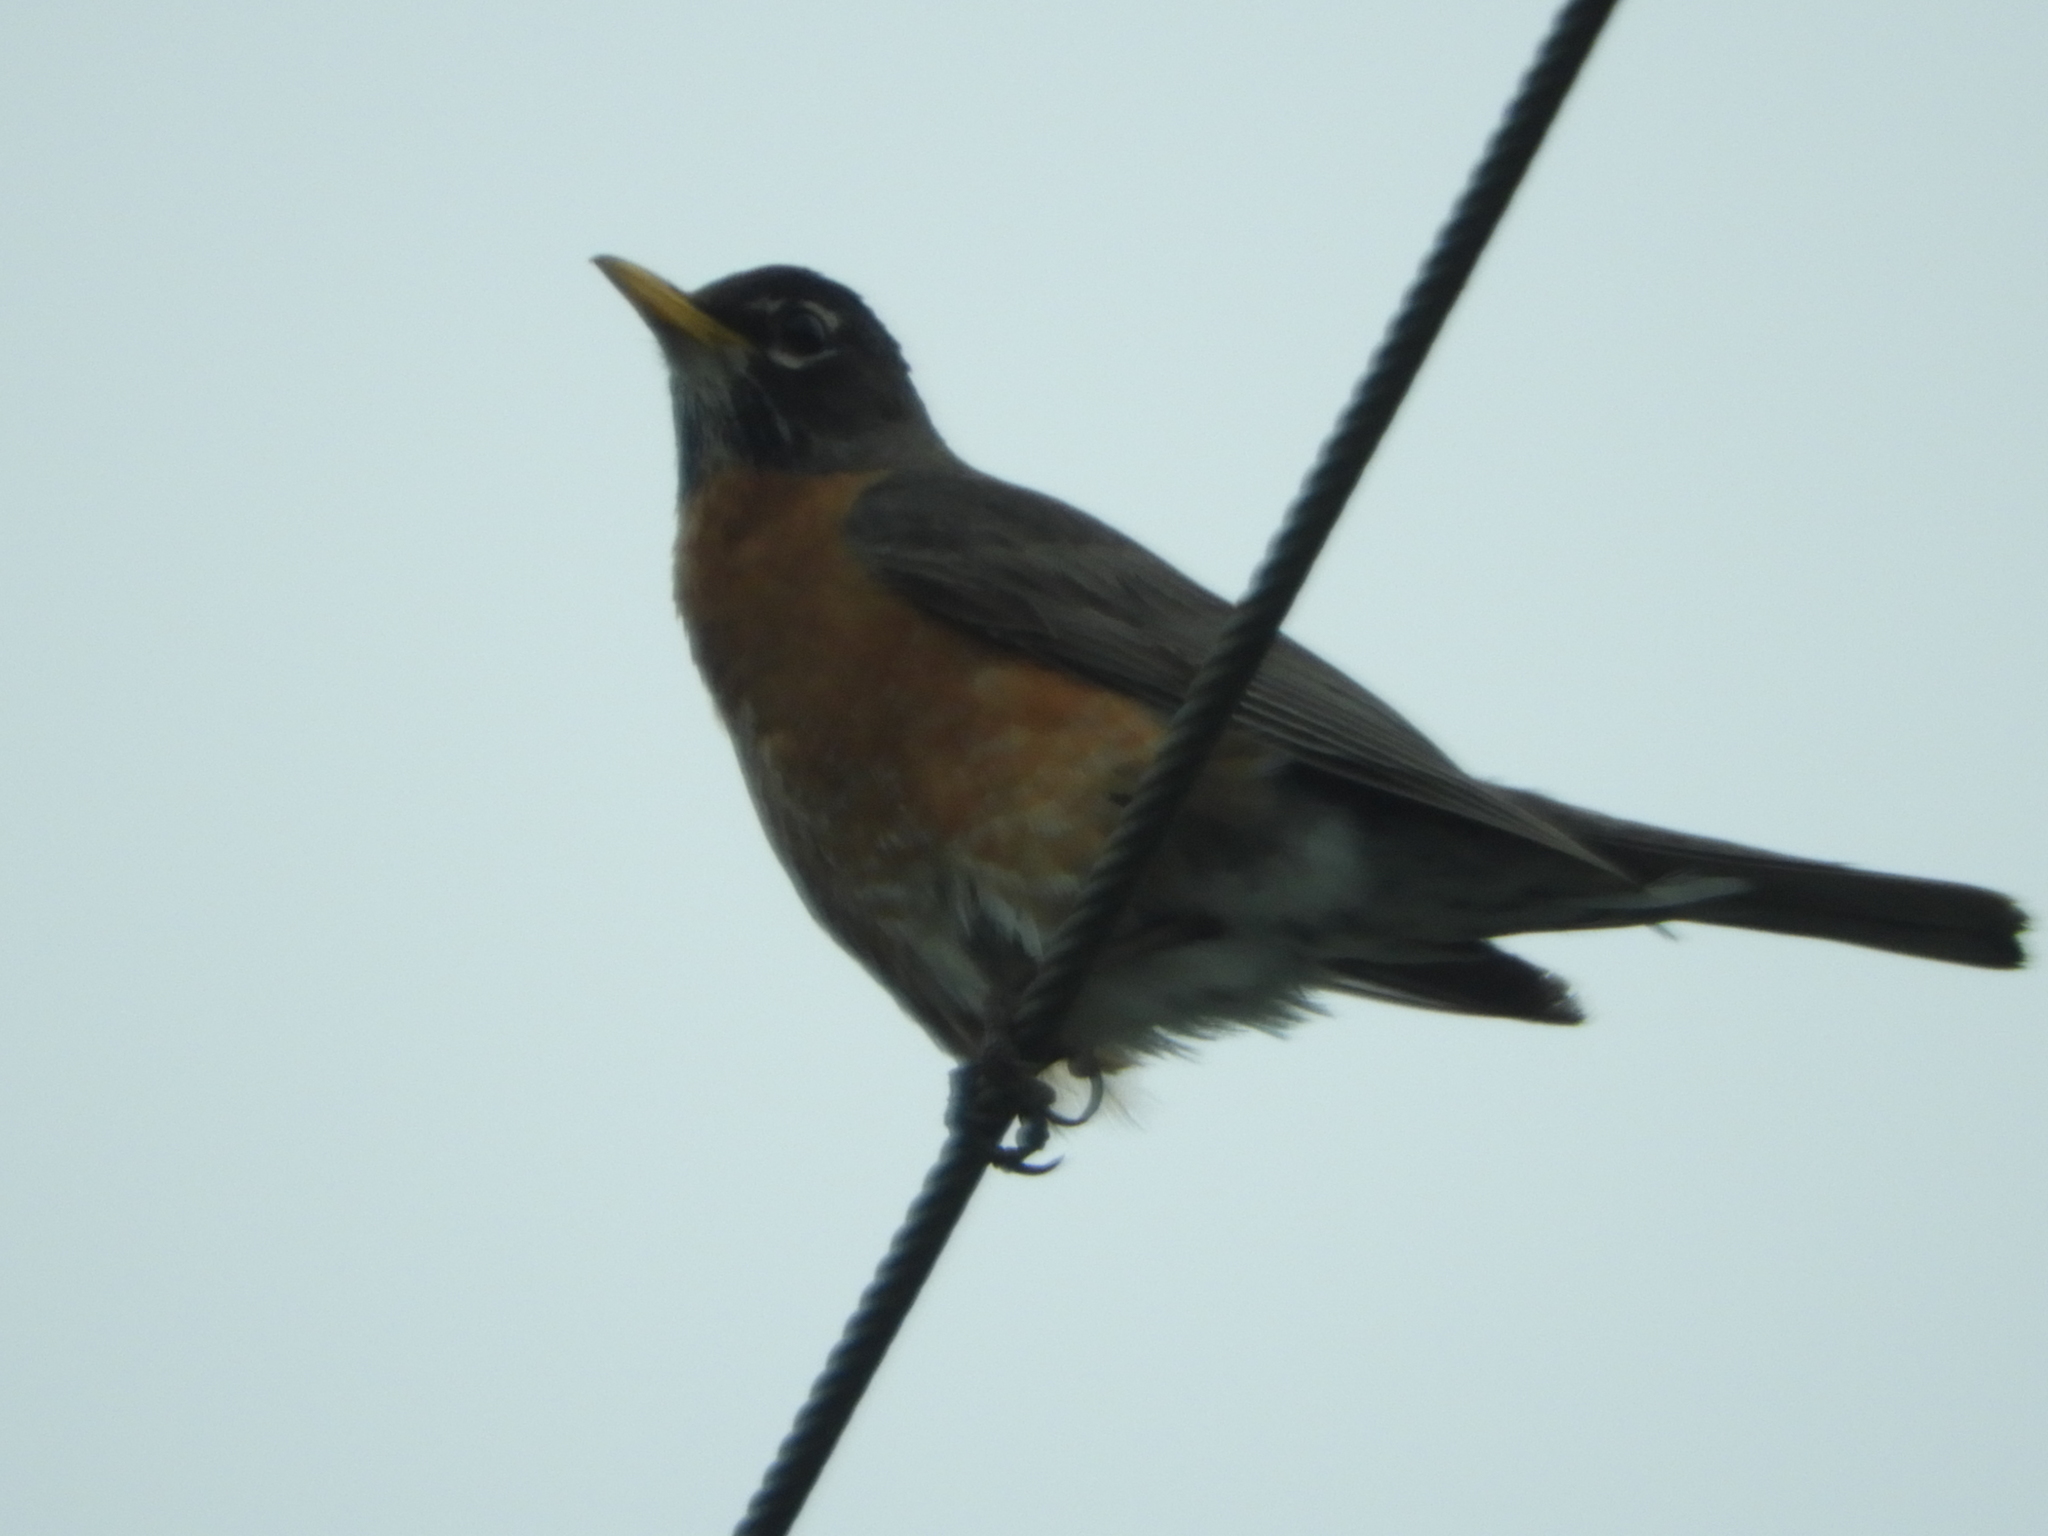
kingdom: Animalia
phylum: Chordata
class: Aves
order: Passeriformes
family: Turdidae
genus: Turdus
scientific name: Turdus migratorius
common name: American robin
